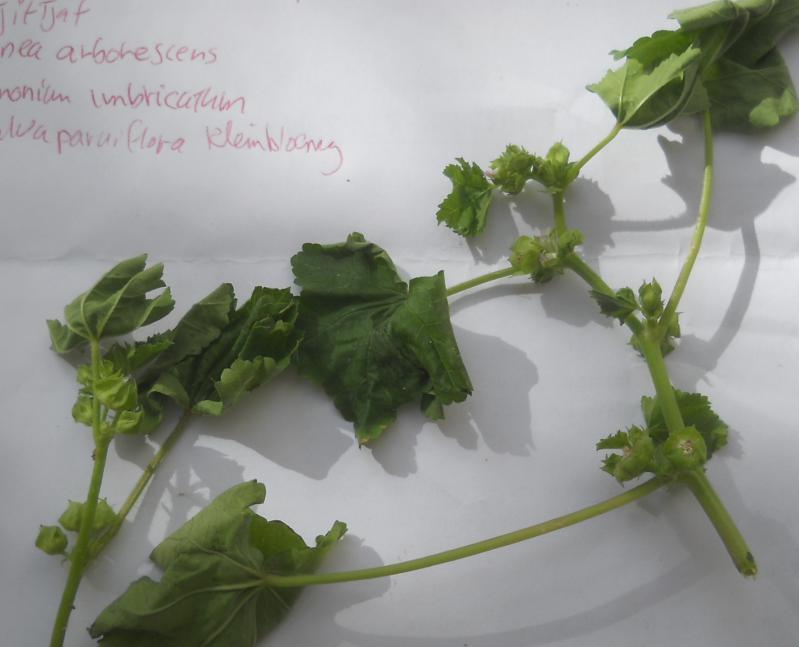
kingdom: Plantae
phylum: Tracheophyta
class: Magnoliopsida
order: Malvales
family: Malvaceae
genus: Malva
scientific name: Malva parviflora
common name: Least mallow
